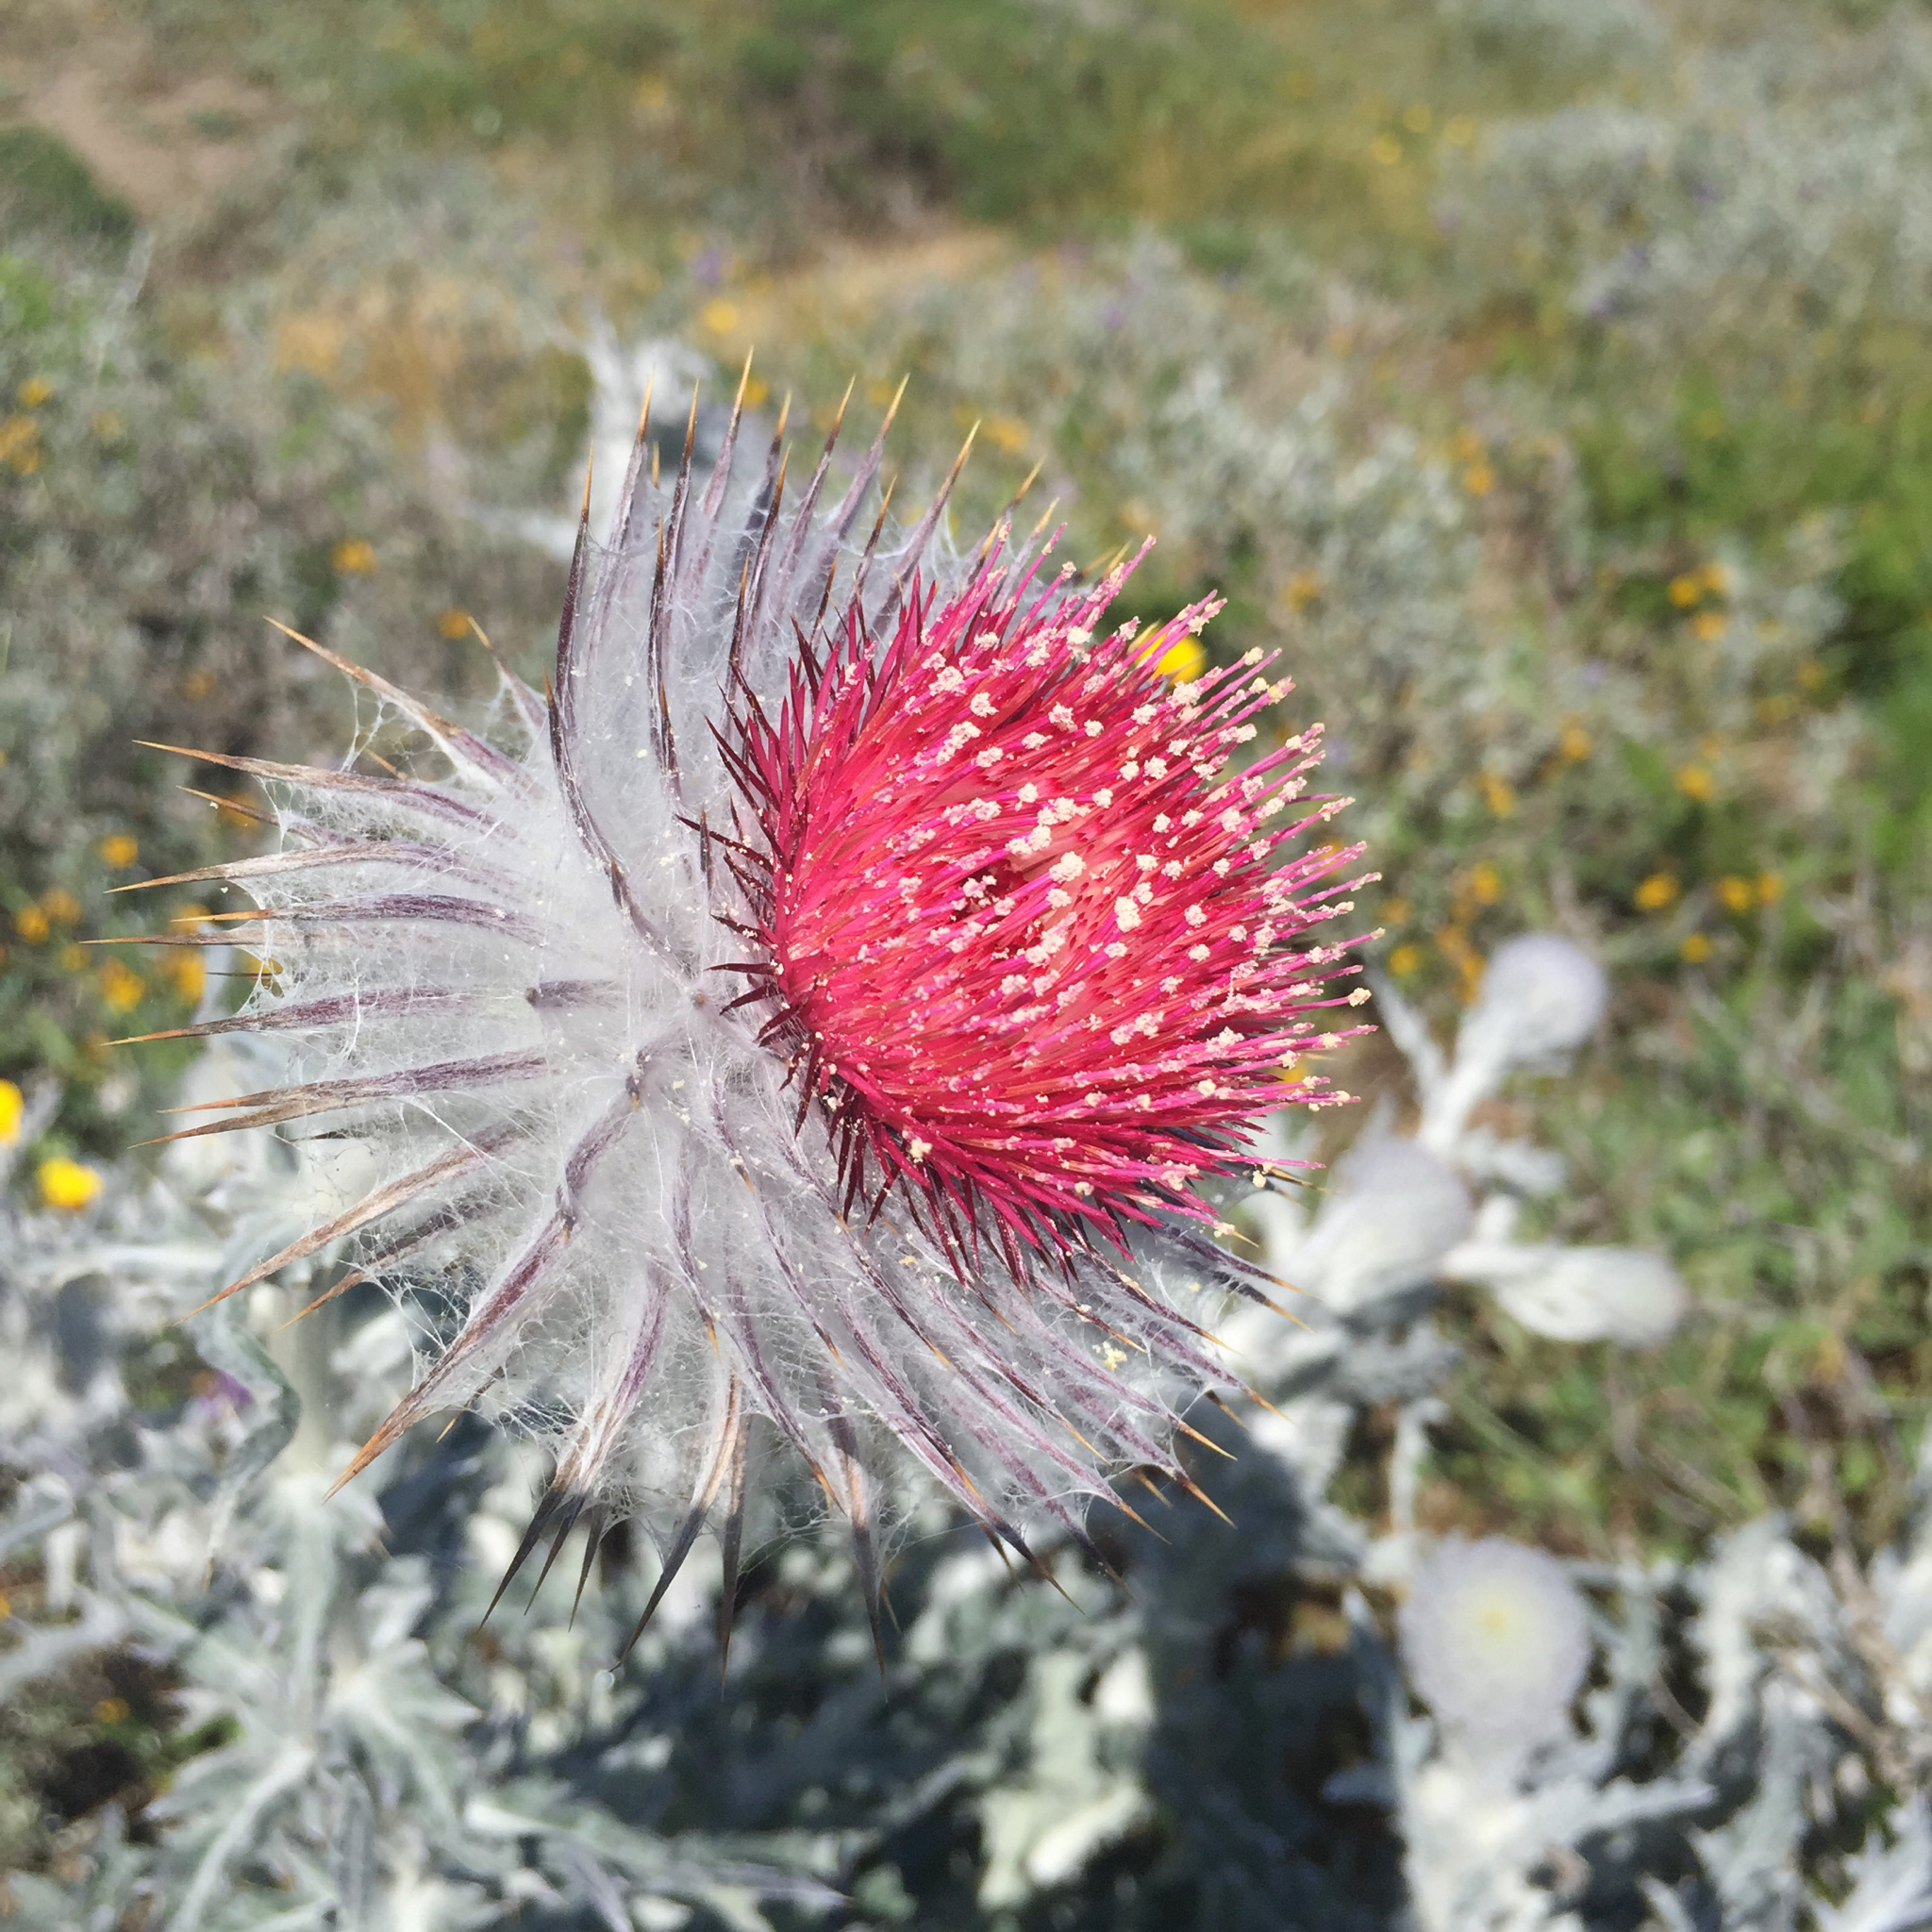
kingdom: Plantae
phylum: Tracheophyta
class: Magnoliopsida
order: Asterales
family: Asteraceae
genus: Cirsium
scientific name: Cirsium occidentale
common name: Western thistle
